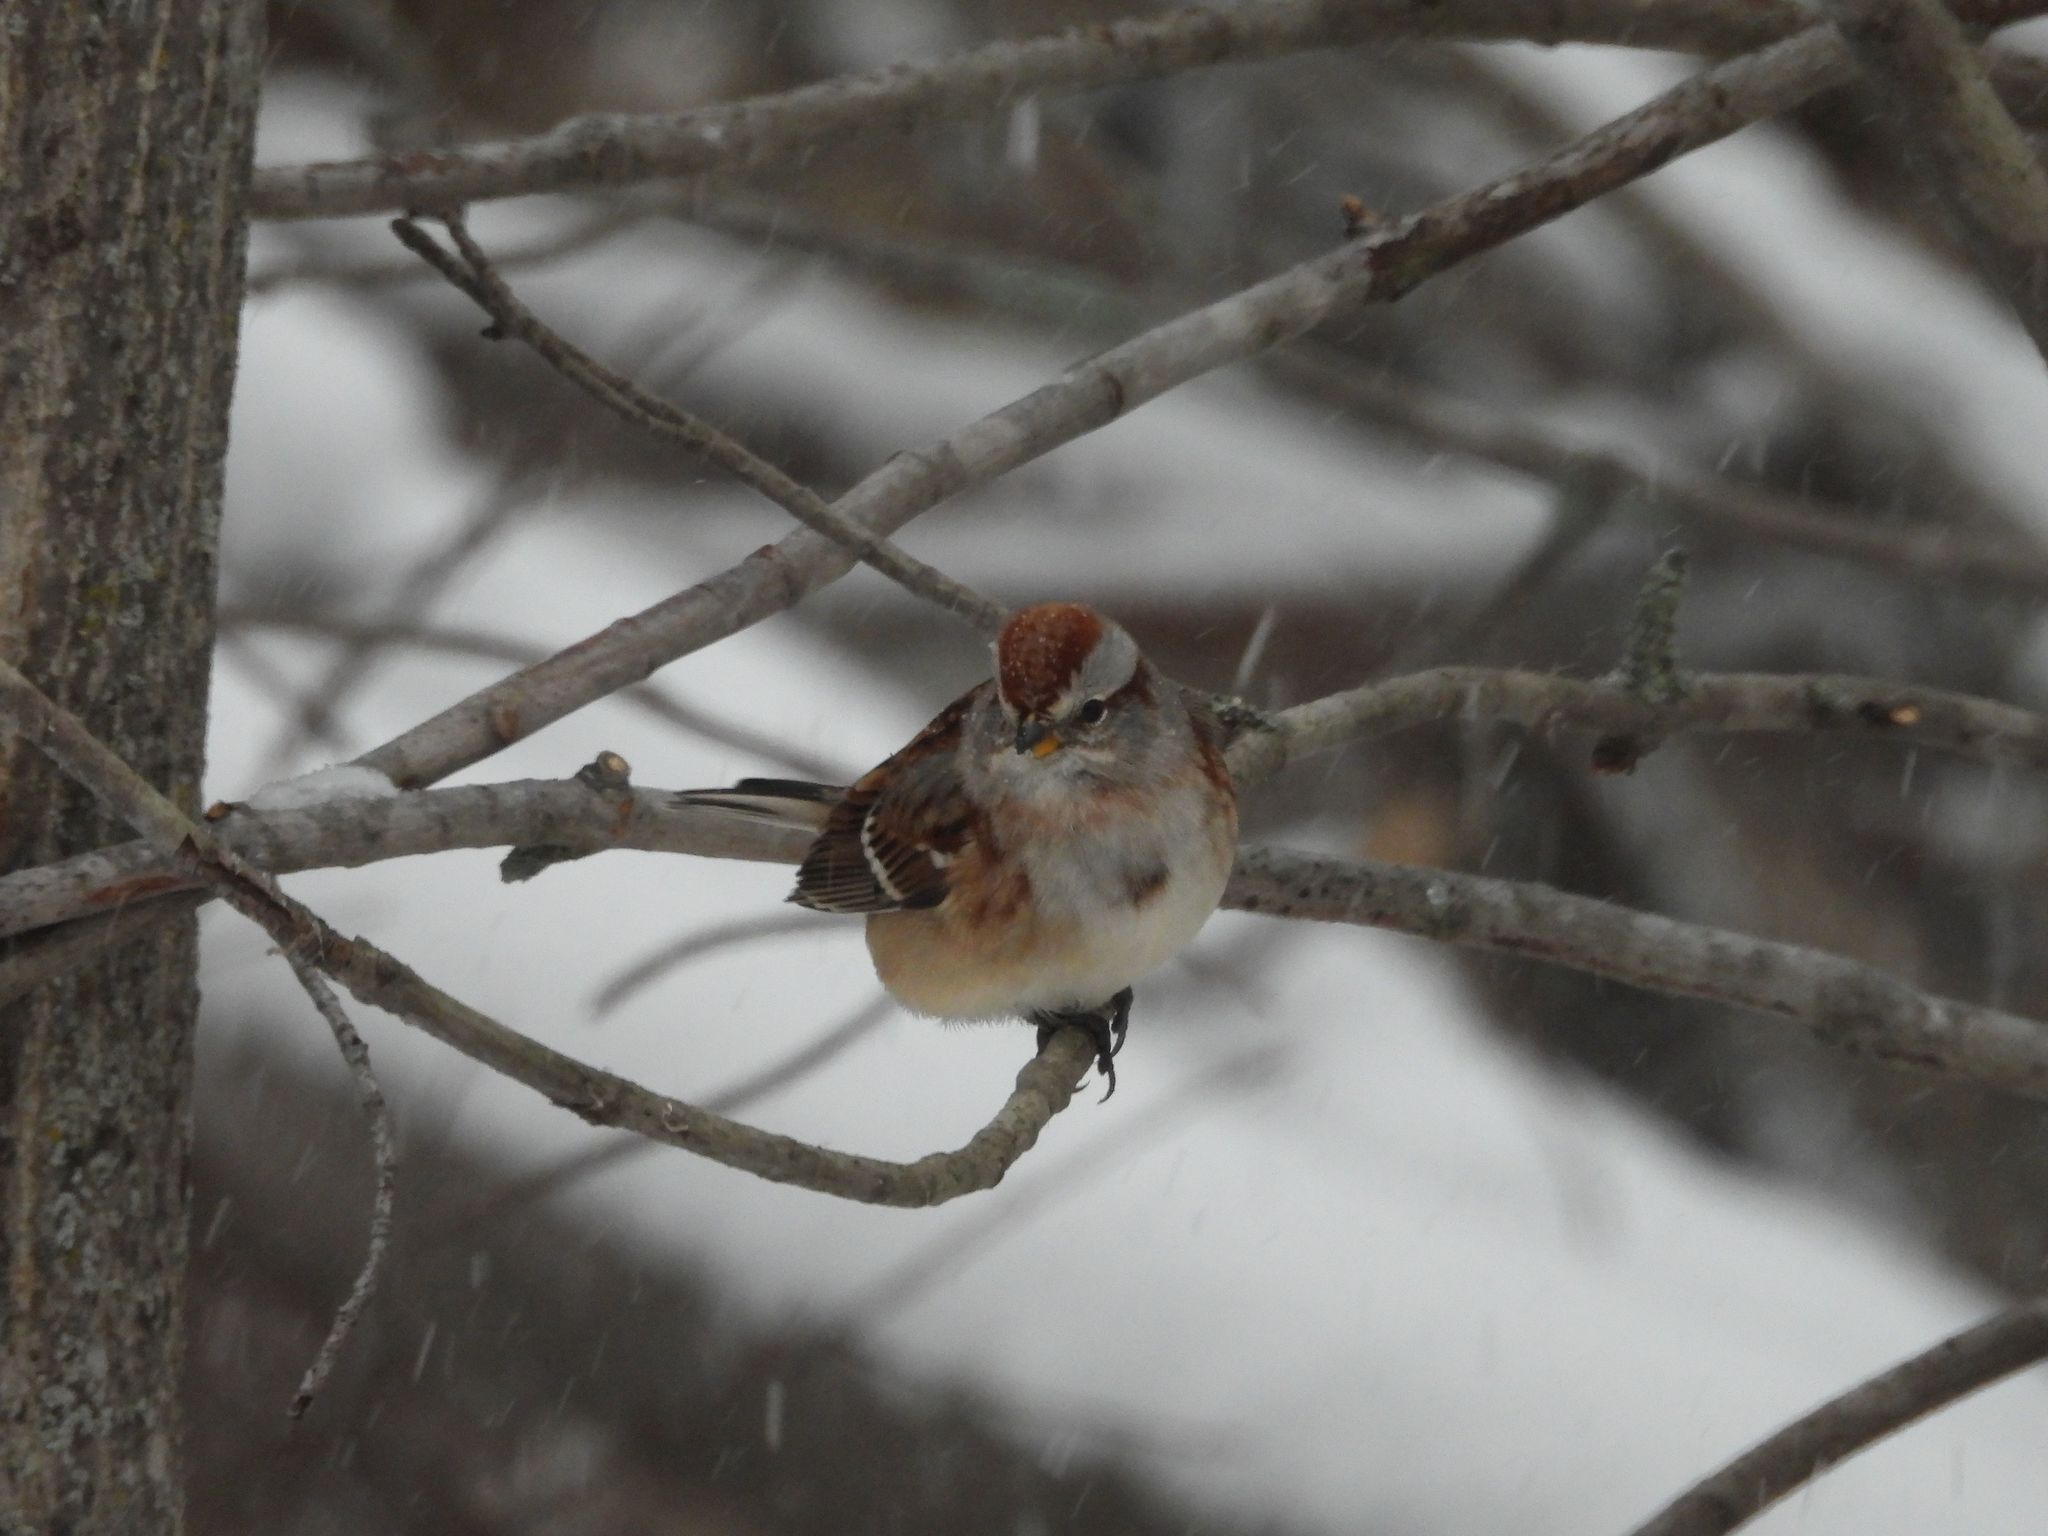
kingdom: Animalia
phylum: Chordata
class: Aves
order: Passeriformes
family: Passerellidae
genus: Spizelloides
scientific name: Spizelloides arborea
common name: American tree sparrow
